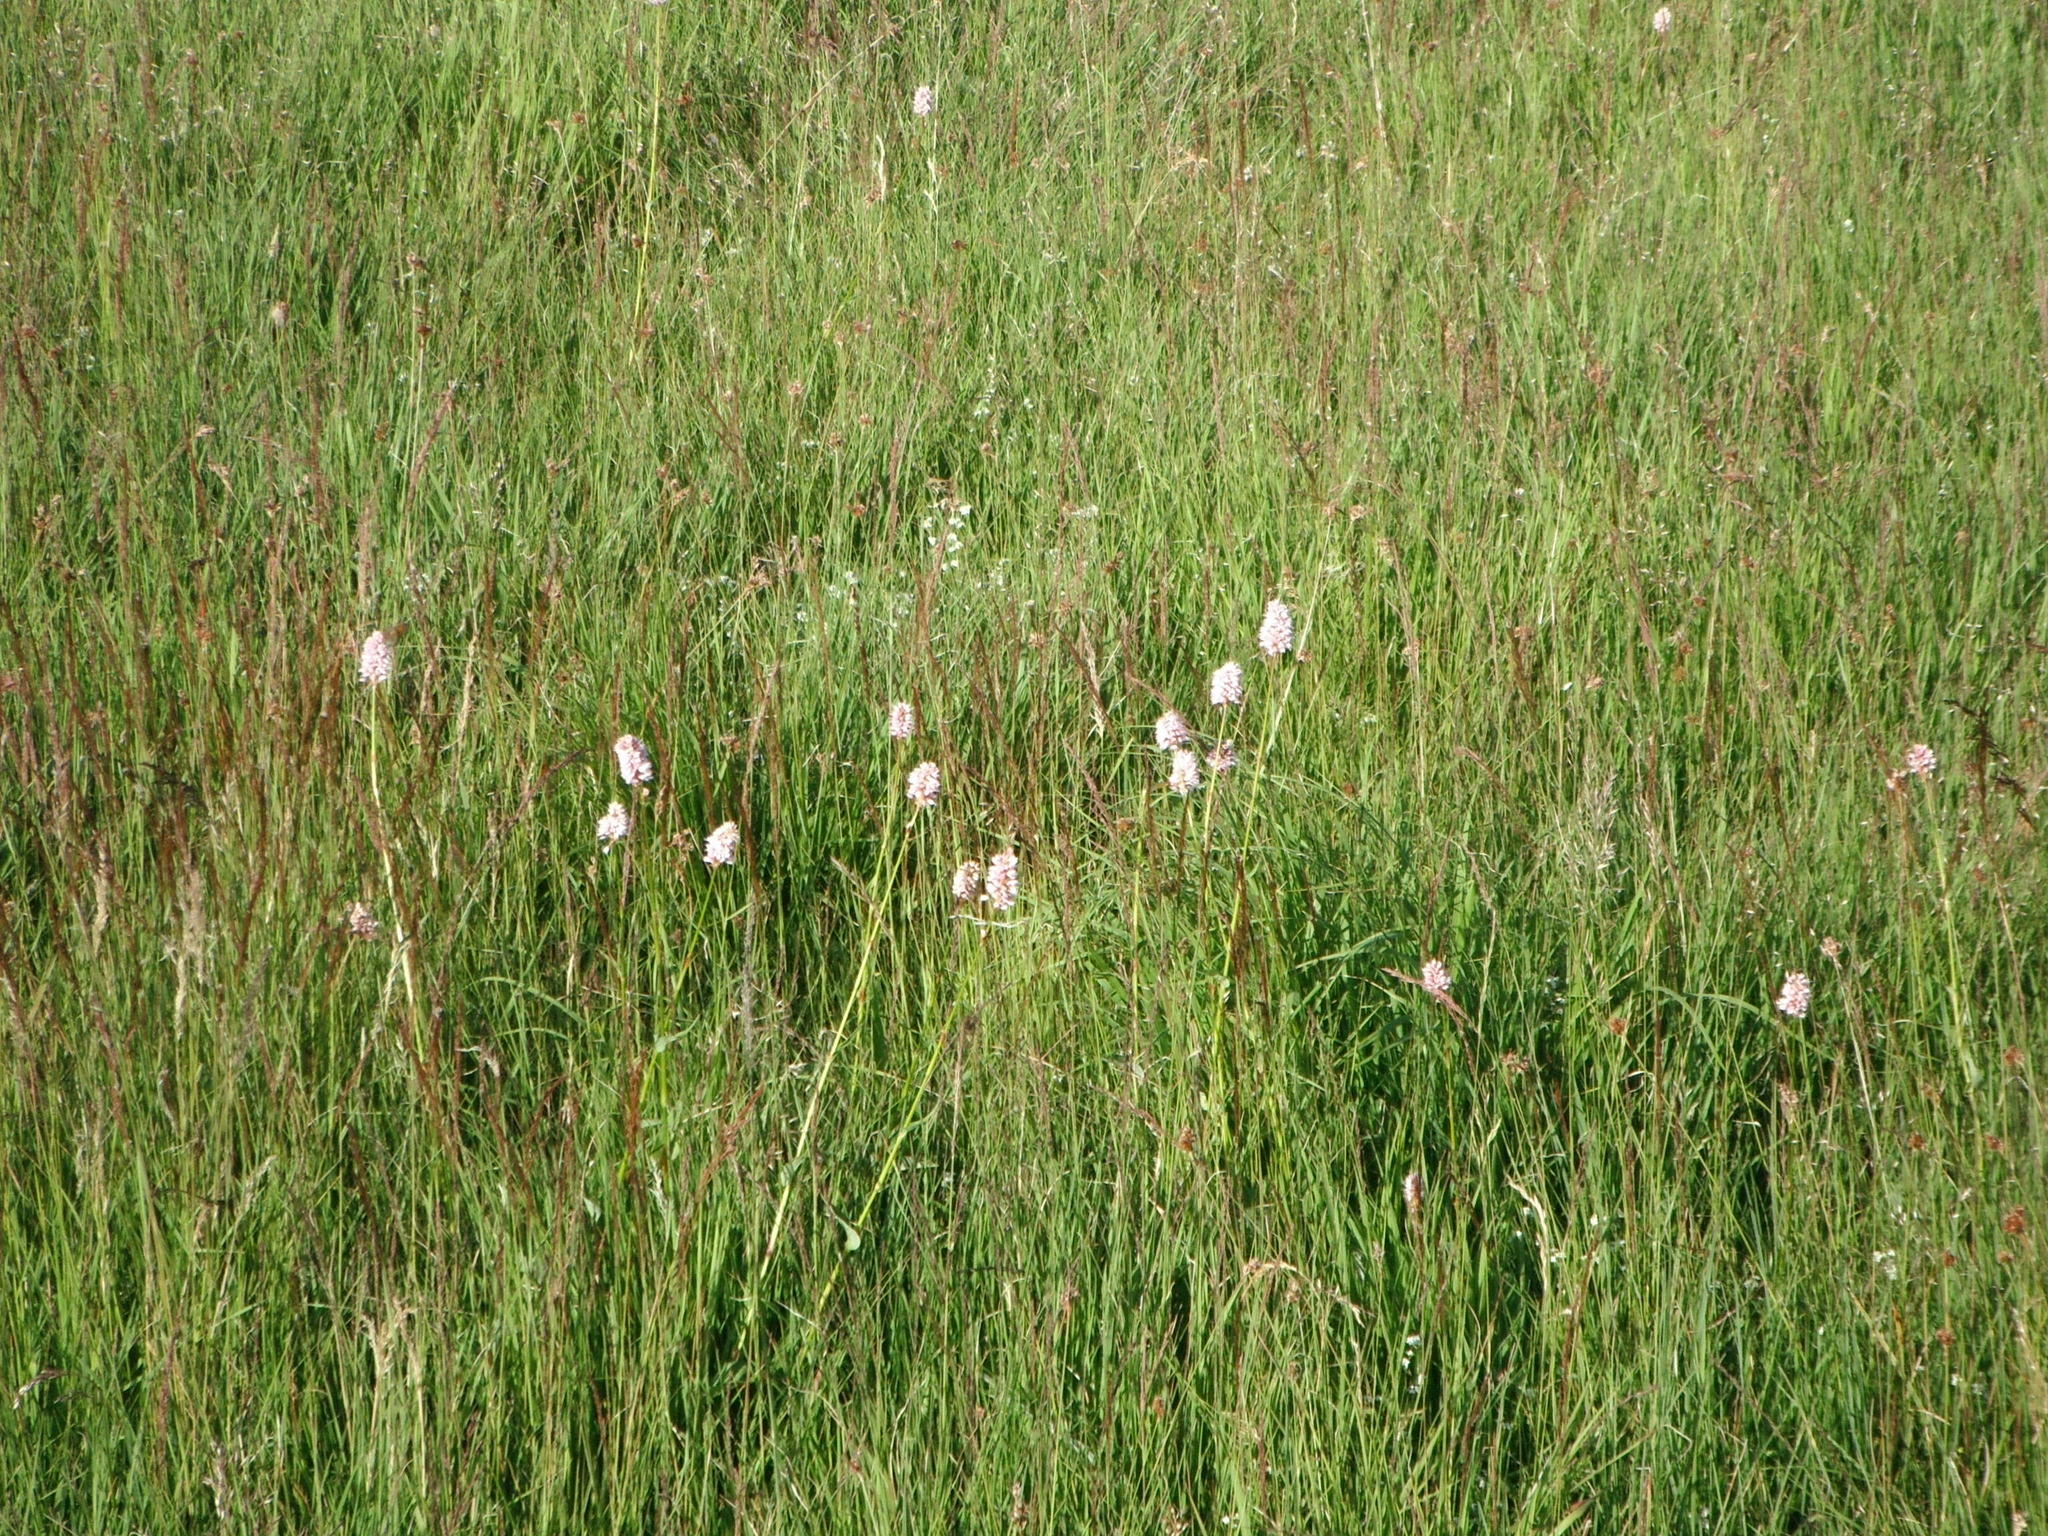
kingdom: Plantae
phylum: Tracheophyta
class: Liliopsida
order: Asparagales
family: Orchidaceae
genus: Dactylorhiza
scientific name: Dactylorhiza maculata
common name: Heath spotted-orchid
